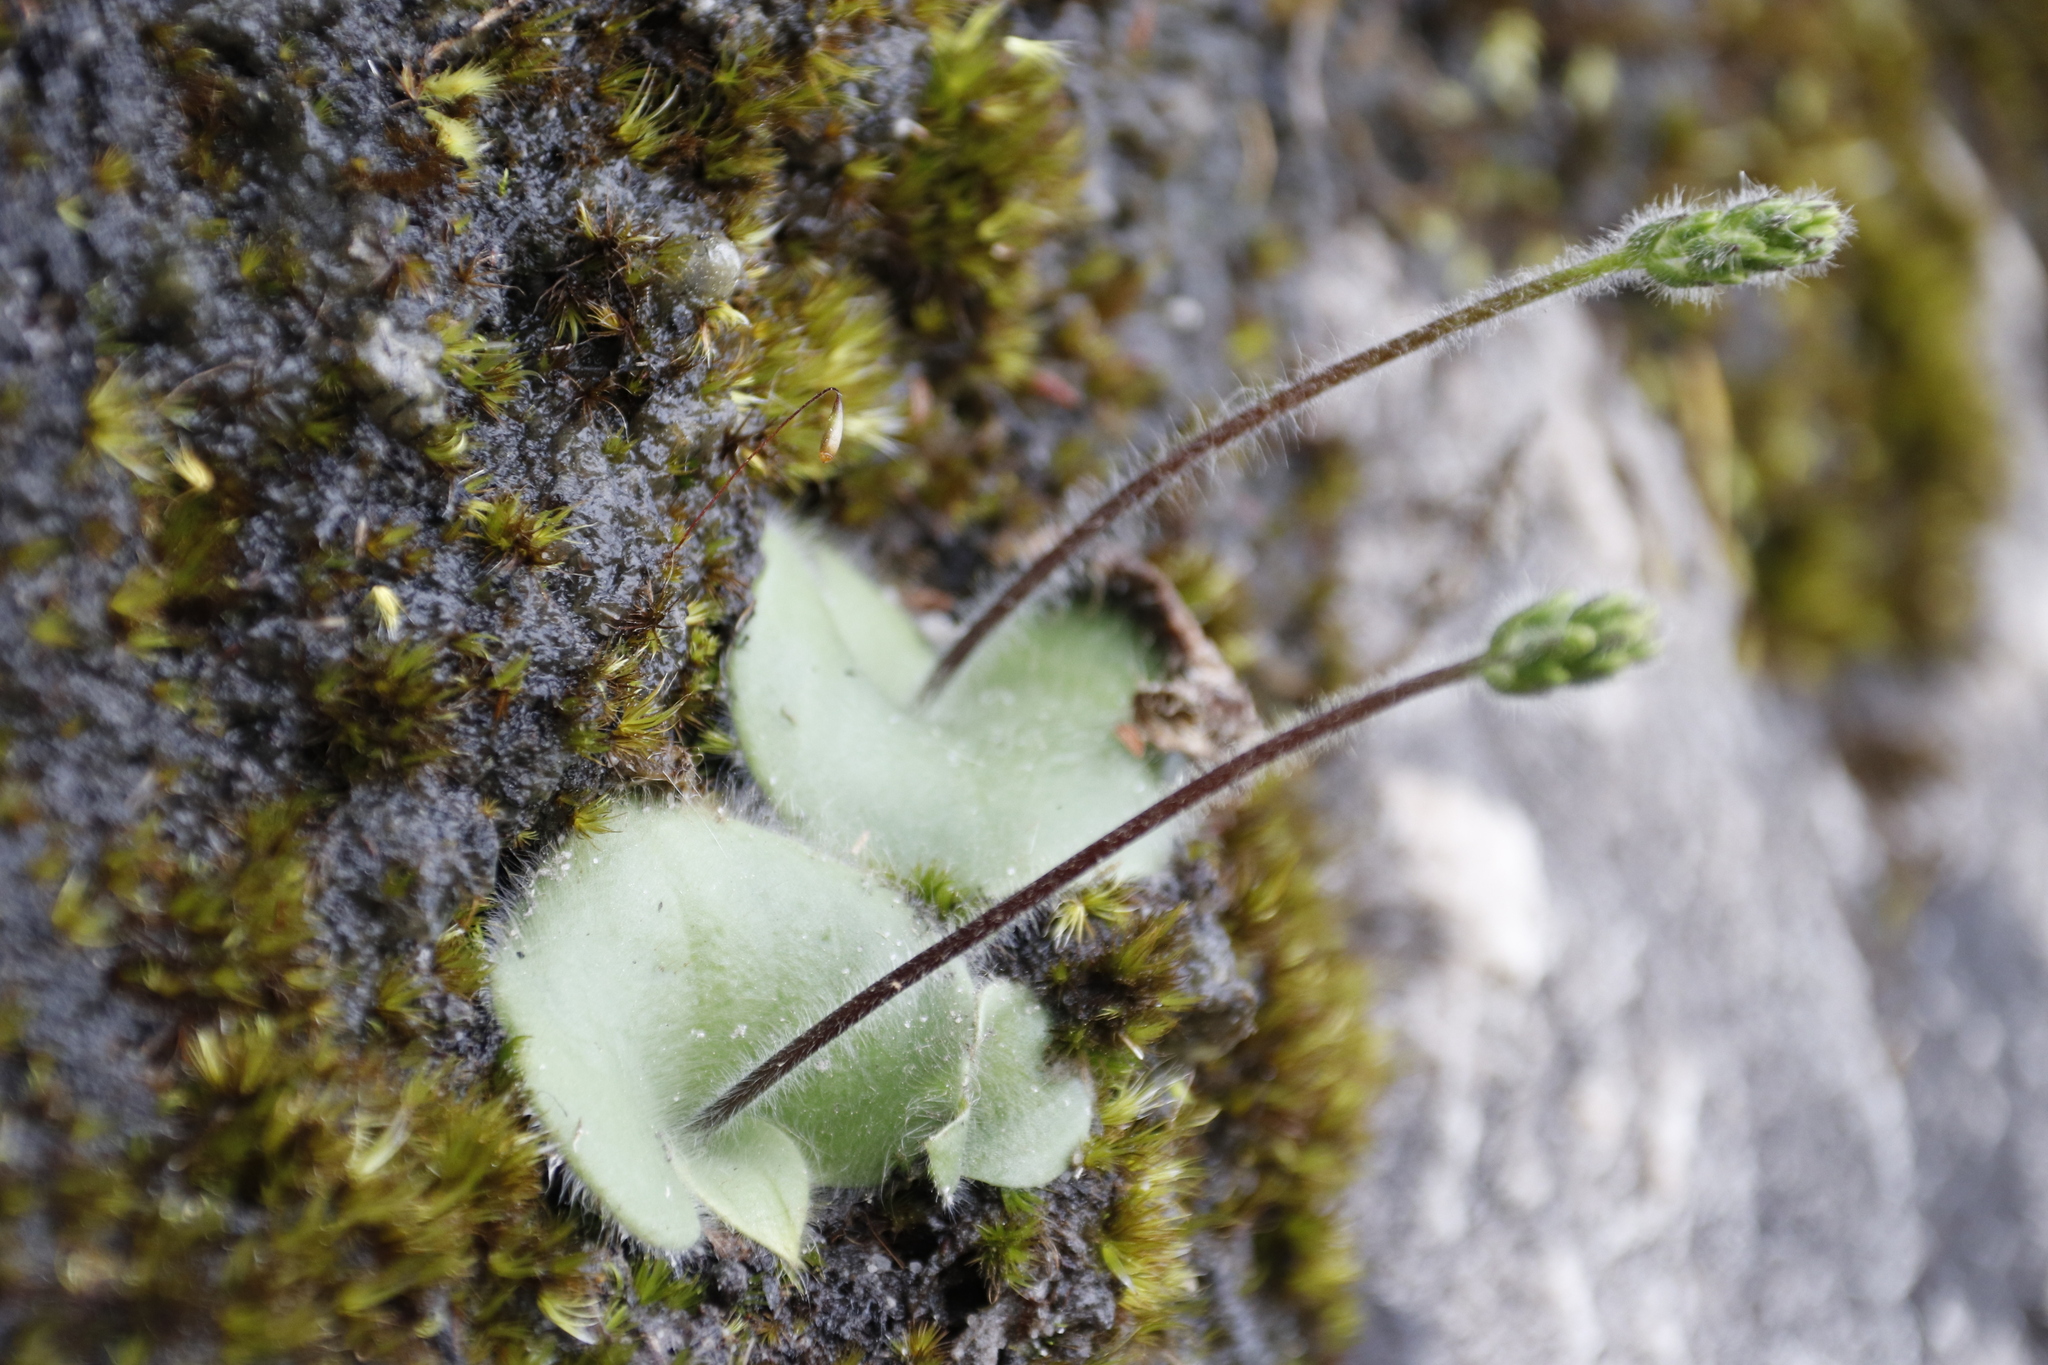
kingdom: Plantae
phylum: Tracheophyta
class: Liliopsida
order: Asparagales
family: Orchidaceae
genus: Holothrix
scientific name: Holothrix villosa
